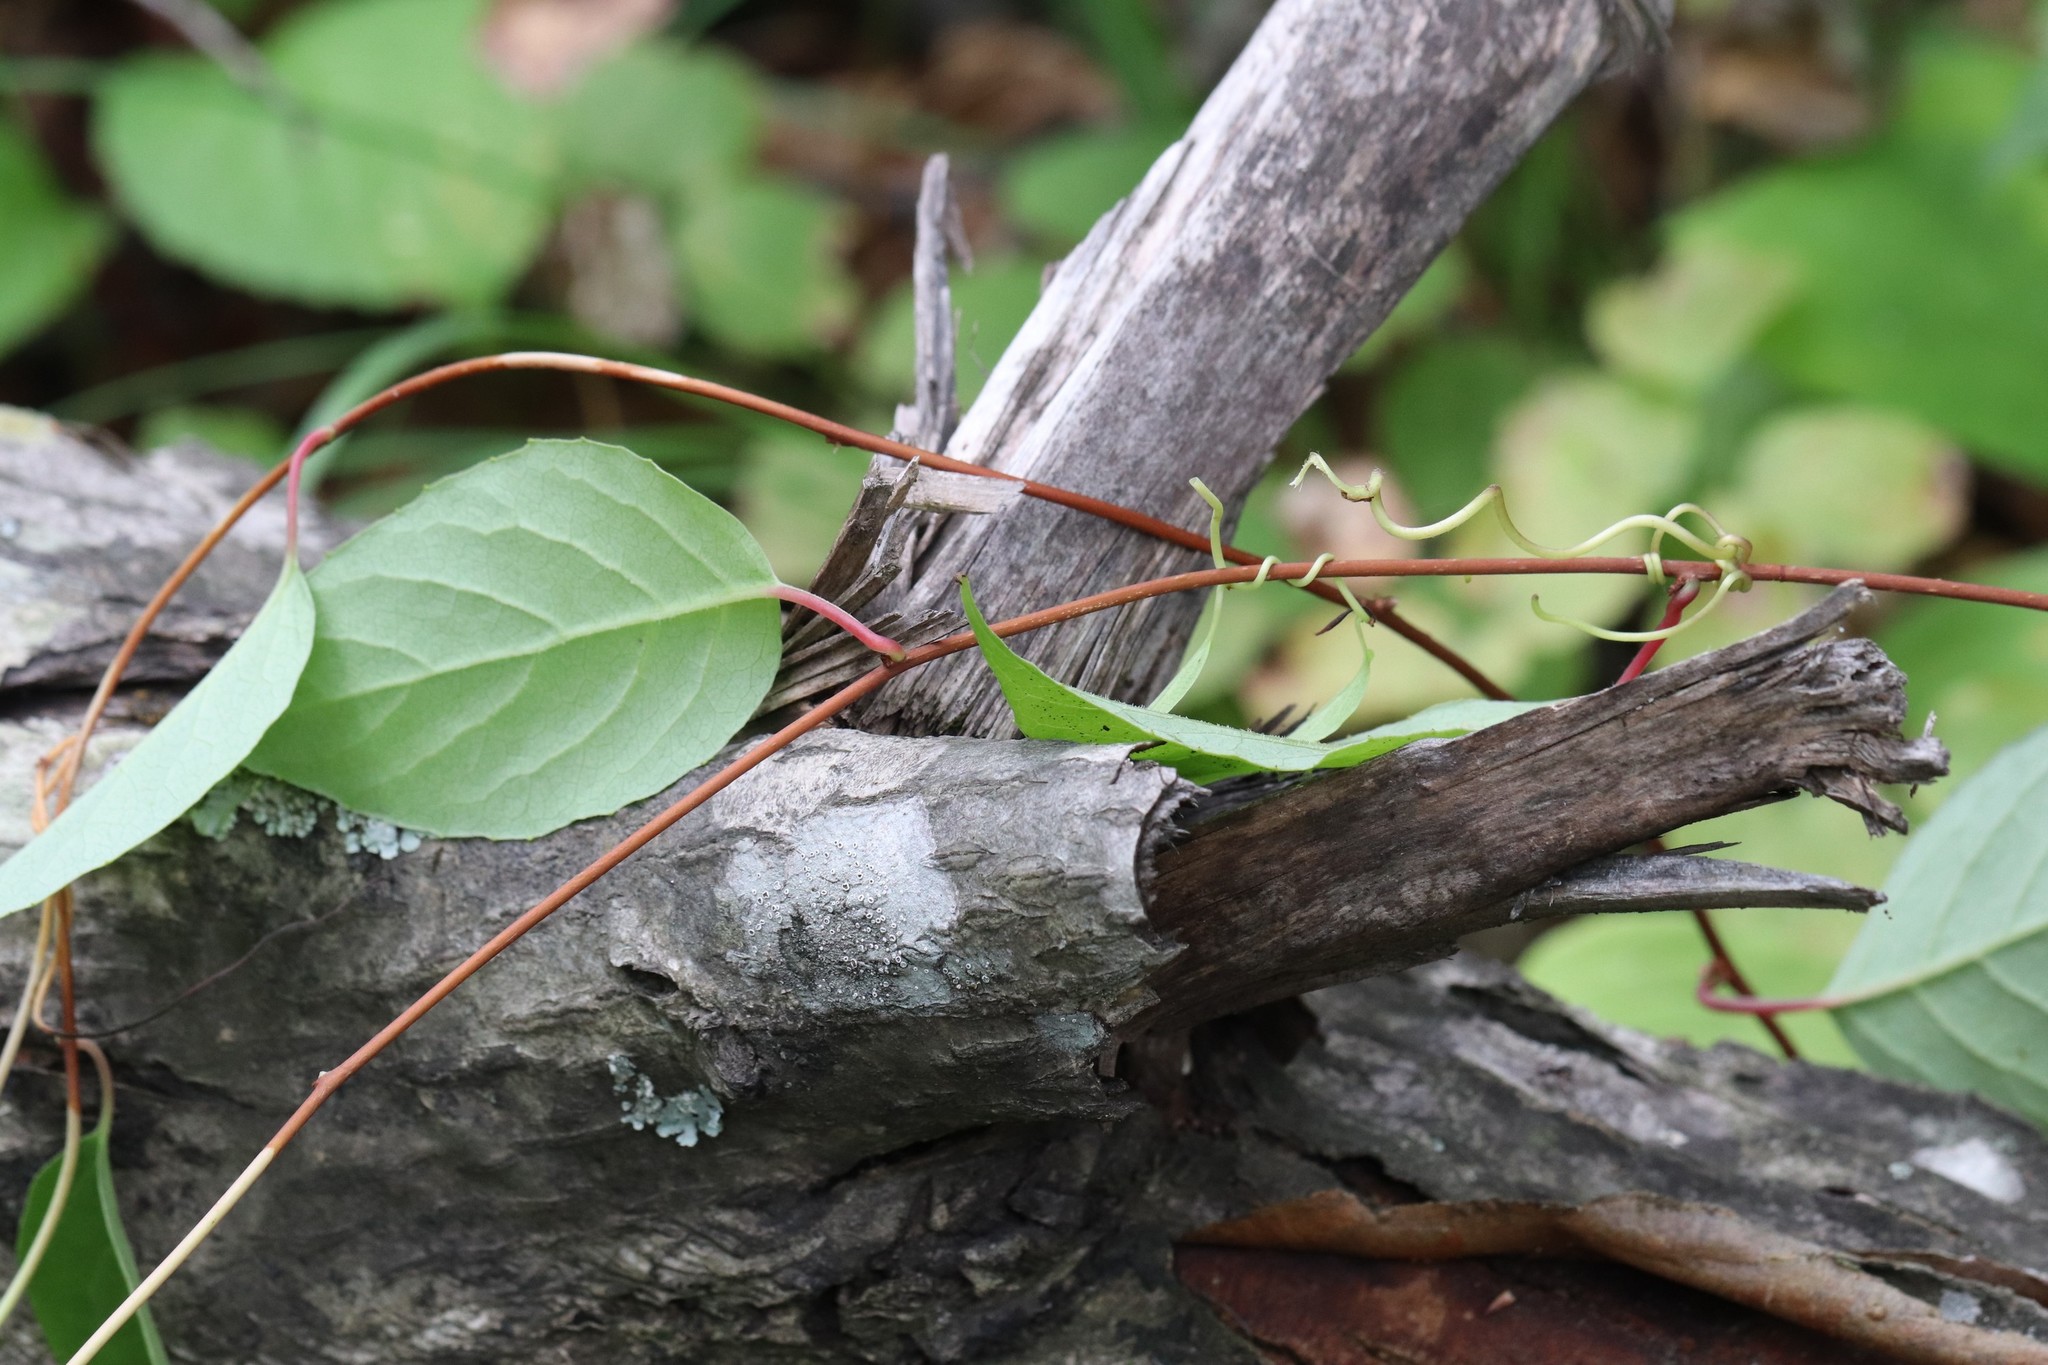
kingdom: Plantae
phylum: Tracheophyta
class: Magnoliopsida
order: Austrobaileyales
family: Schisandraceae
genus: Schisandra
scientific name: Schisandra chinensis
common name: Magnolia-vine
